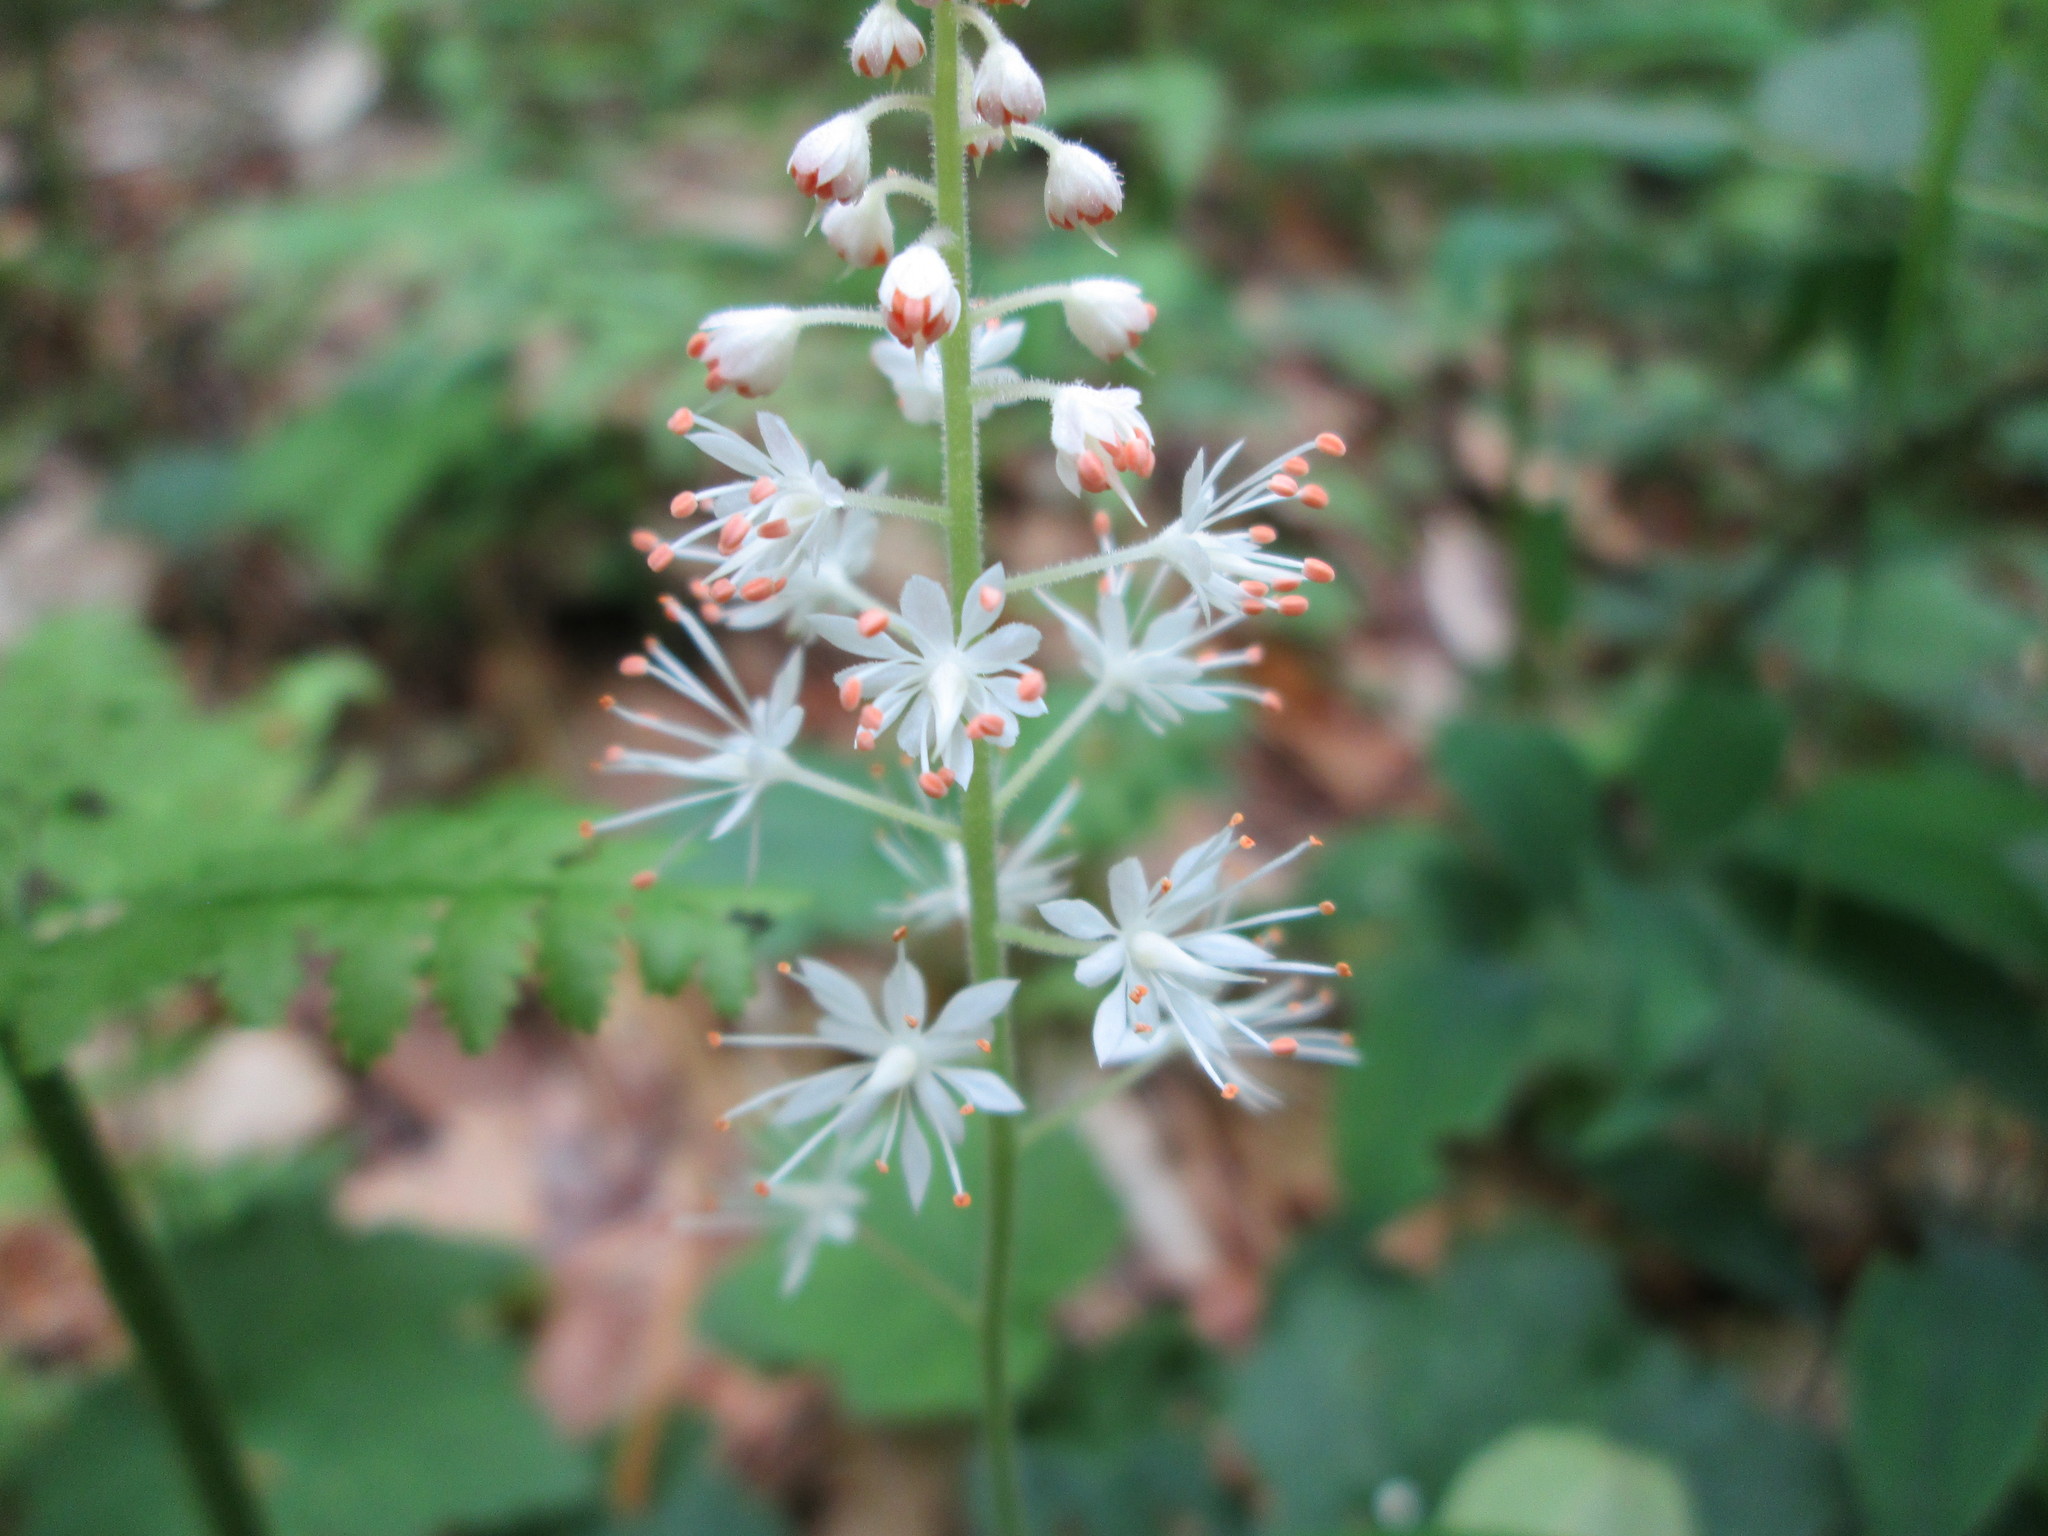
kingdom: Plantae
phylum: Tracheophyta
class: Magnoliopsida
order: Saxifragales
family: Saxifragaceae
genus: Tiarella
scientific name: Tiarella stolonifera
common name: Stoloniferous foamflower
